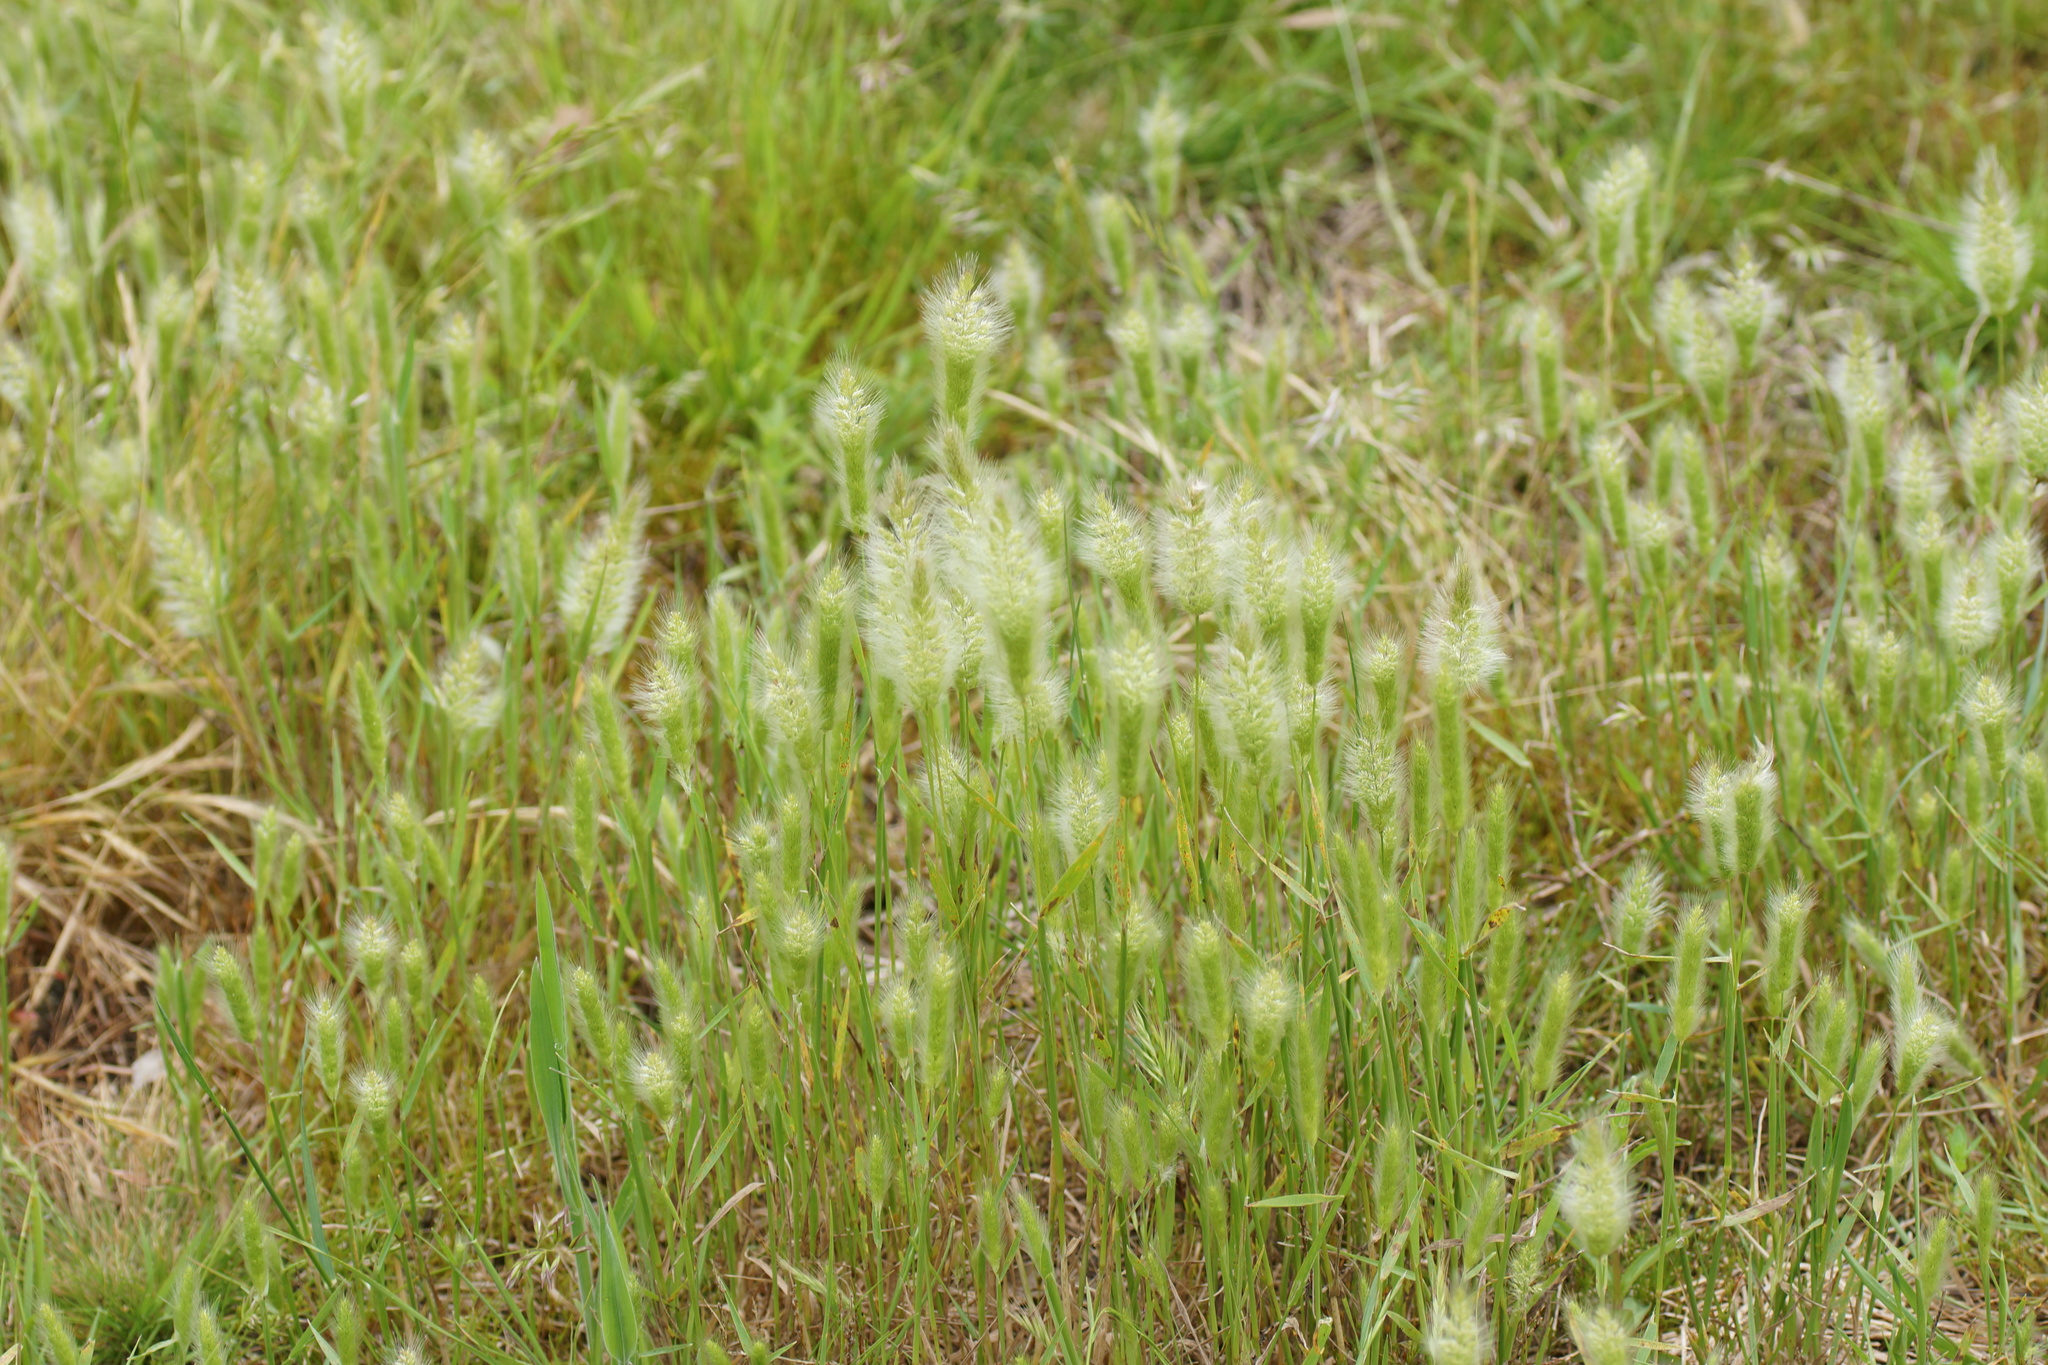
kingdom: Plantae
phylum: Tracheophyta
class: Liliopsida
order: Poales
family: Poaceae
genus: Polypogon
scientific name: Polypogon monspeliensis
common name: Annual rabbitsfoot grass
